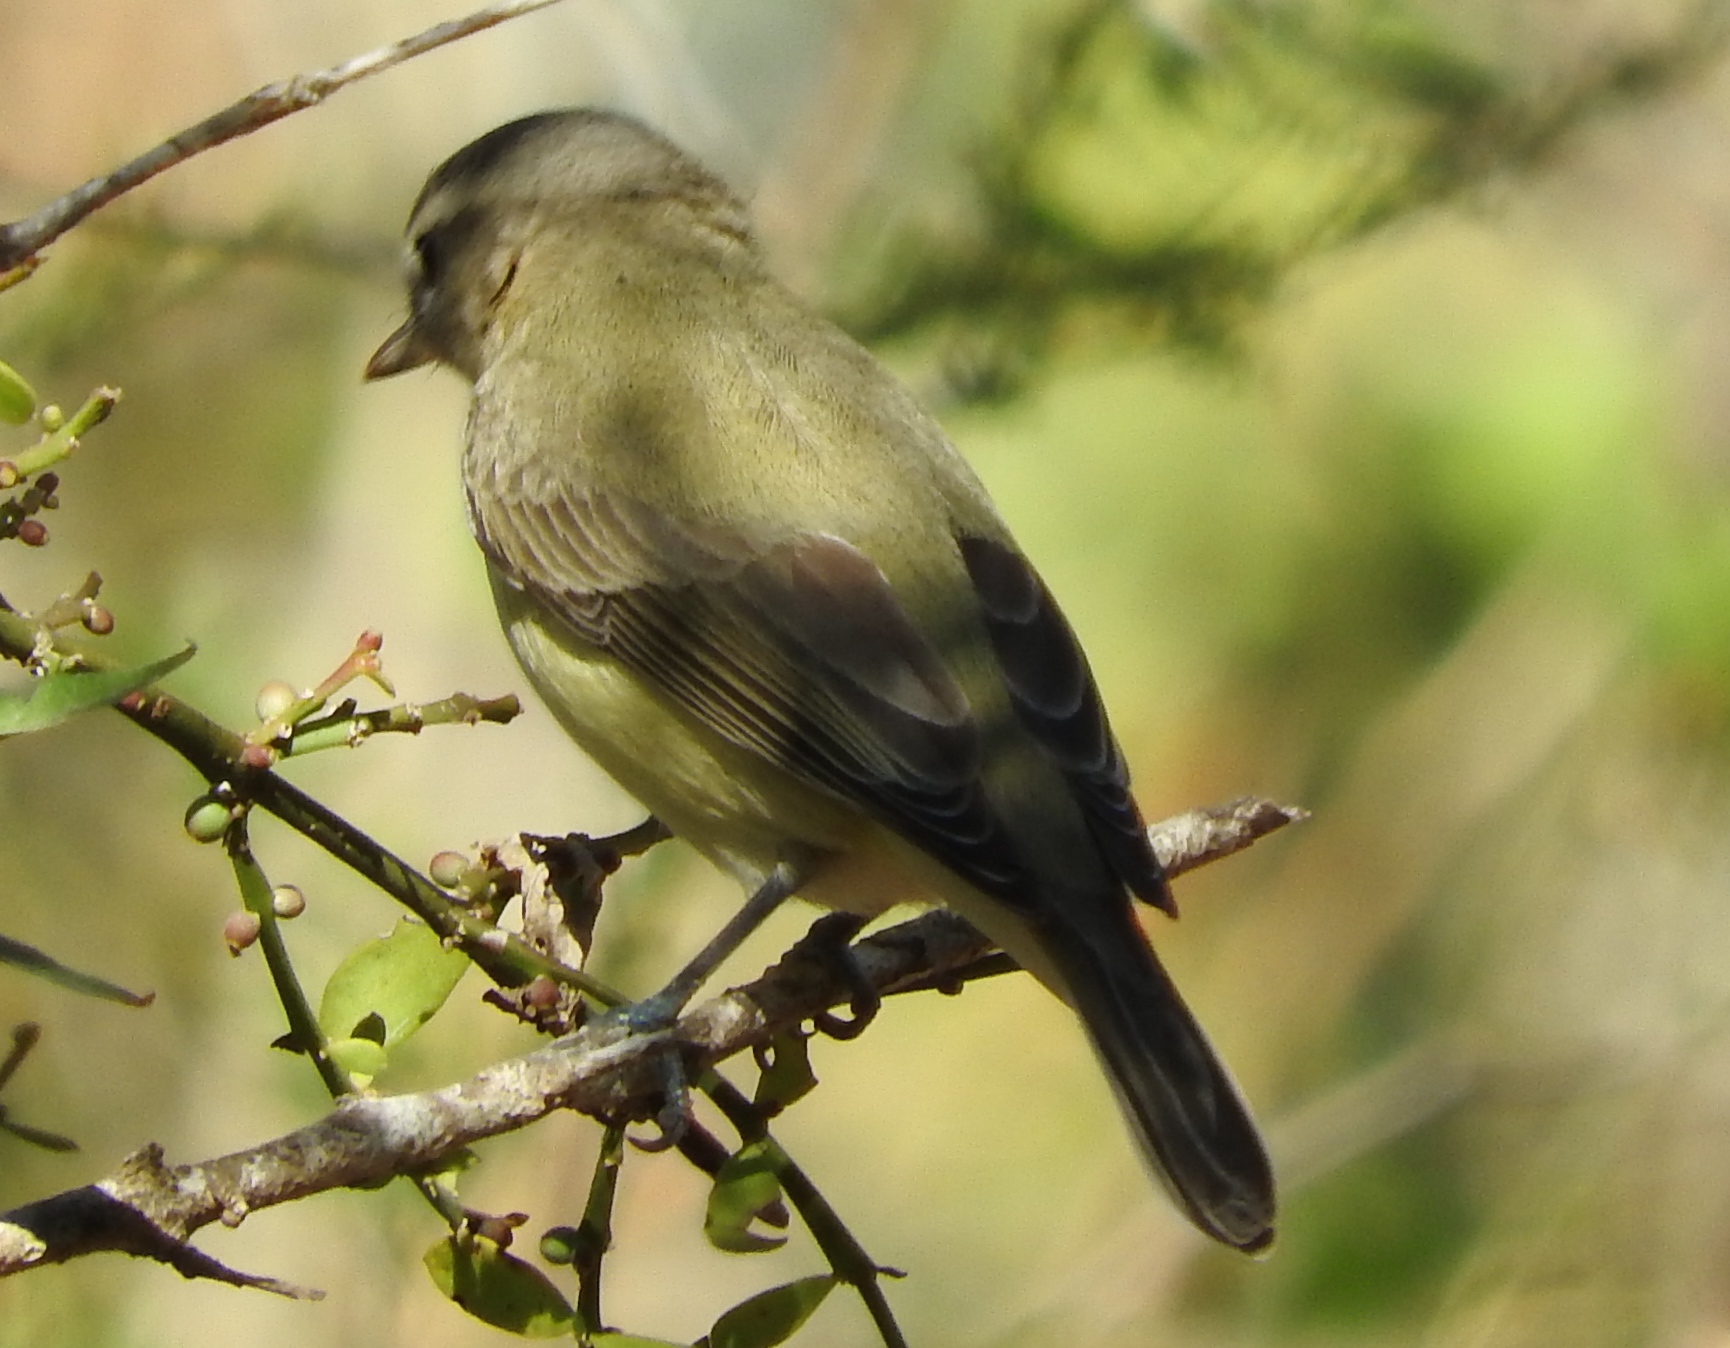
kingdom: Animalia
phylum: Chordata
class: Aves
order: Passeriformes
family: Vireonidae
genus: Vireo
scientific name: Vireo gilvus
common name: Warbling vireo
